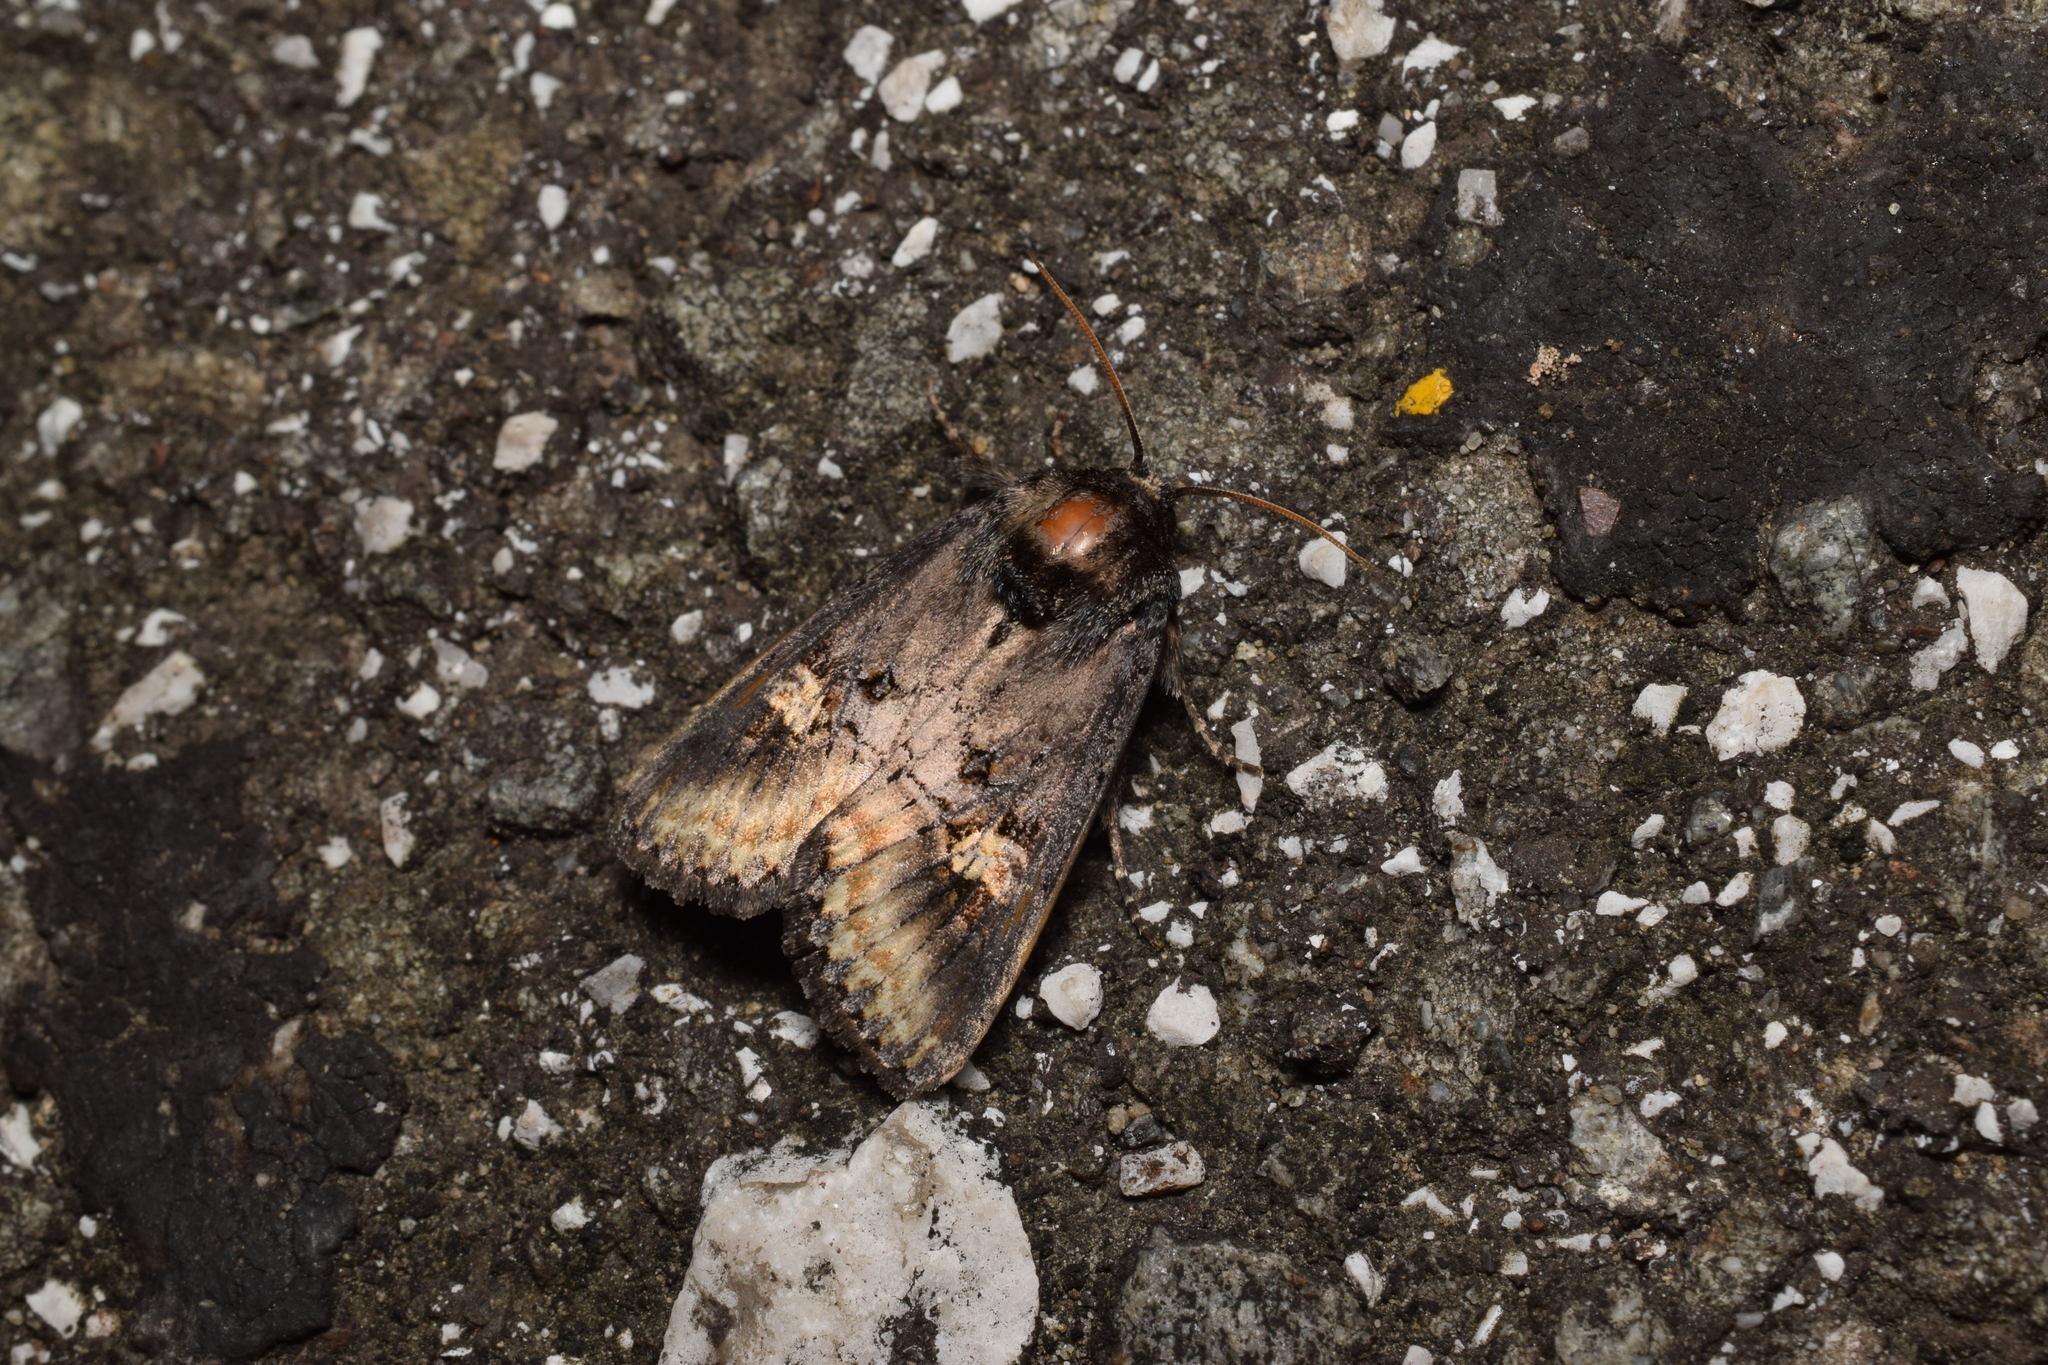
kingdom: Animalia
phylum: Arthropoda
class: Insecta
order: Lepidoptera
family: Noctuidae
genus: Brithys
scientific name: Brithys crini
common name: Kew arches
